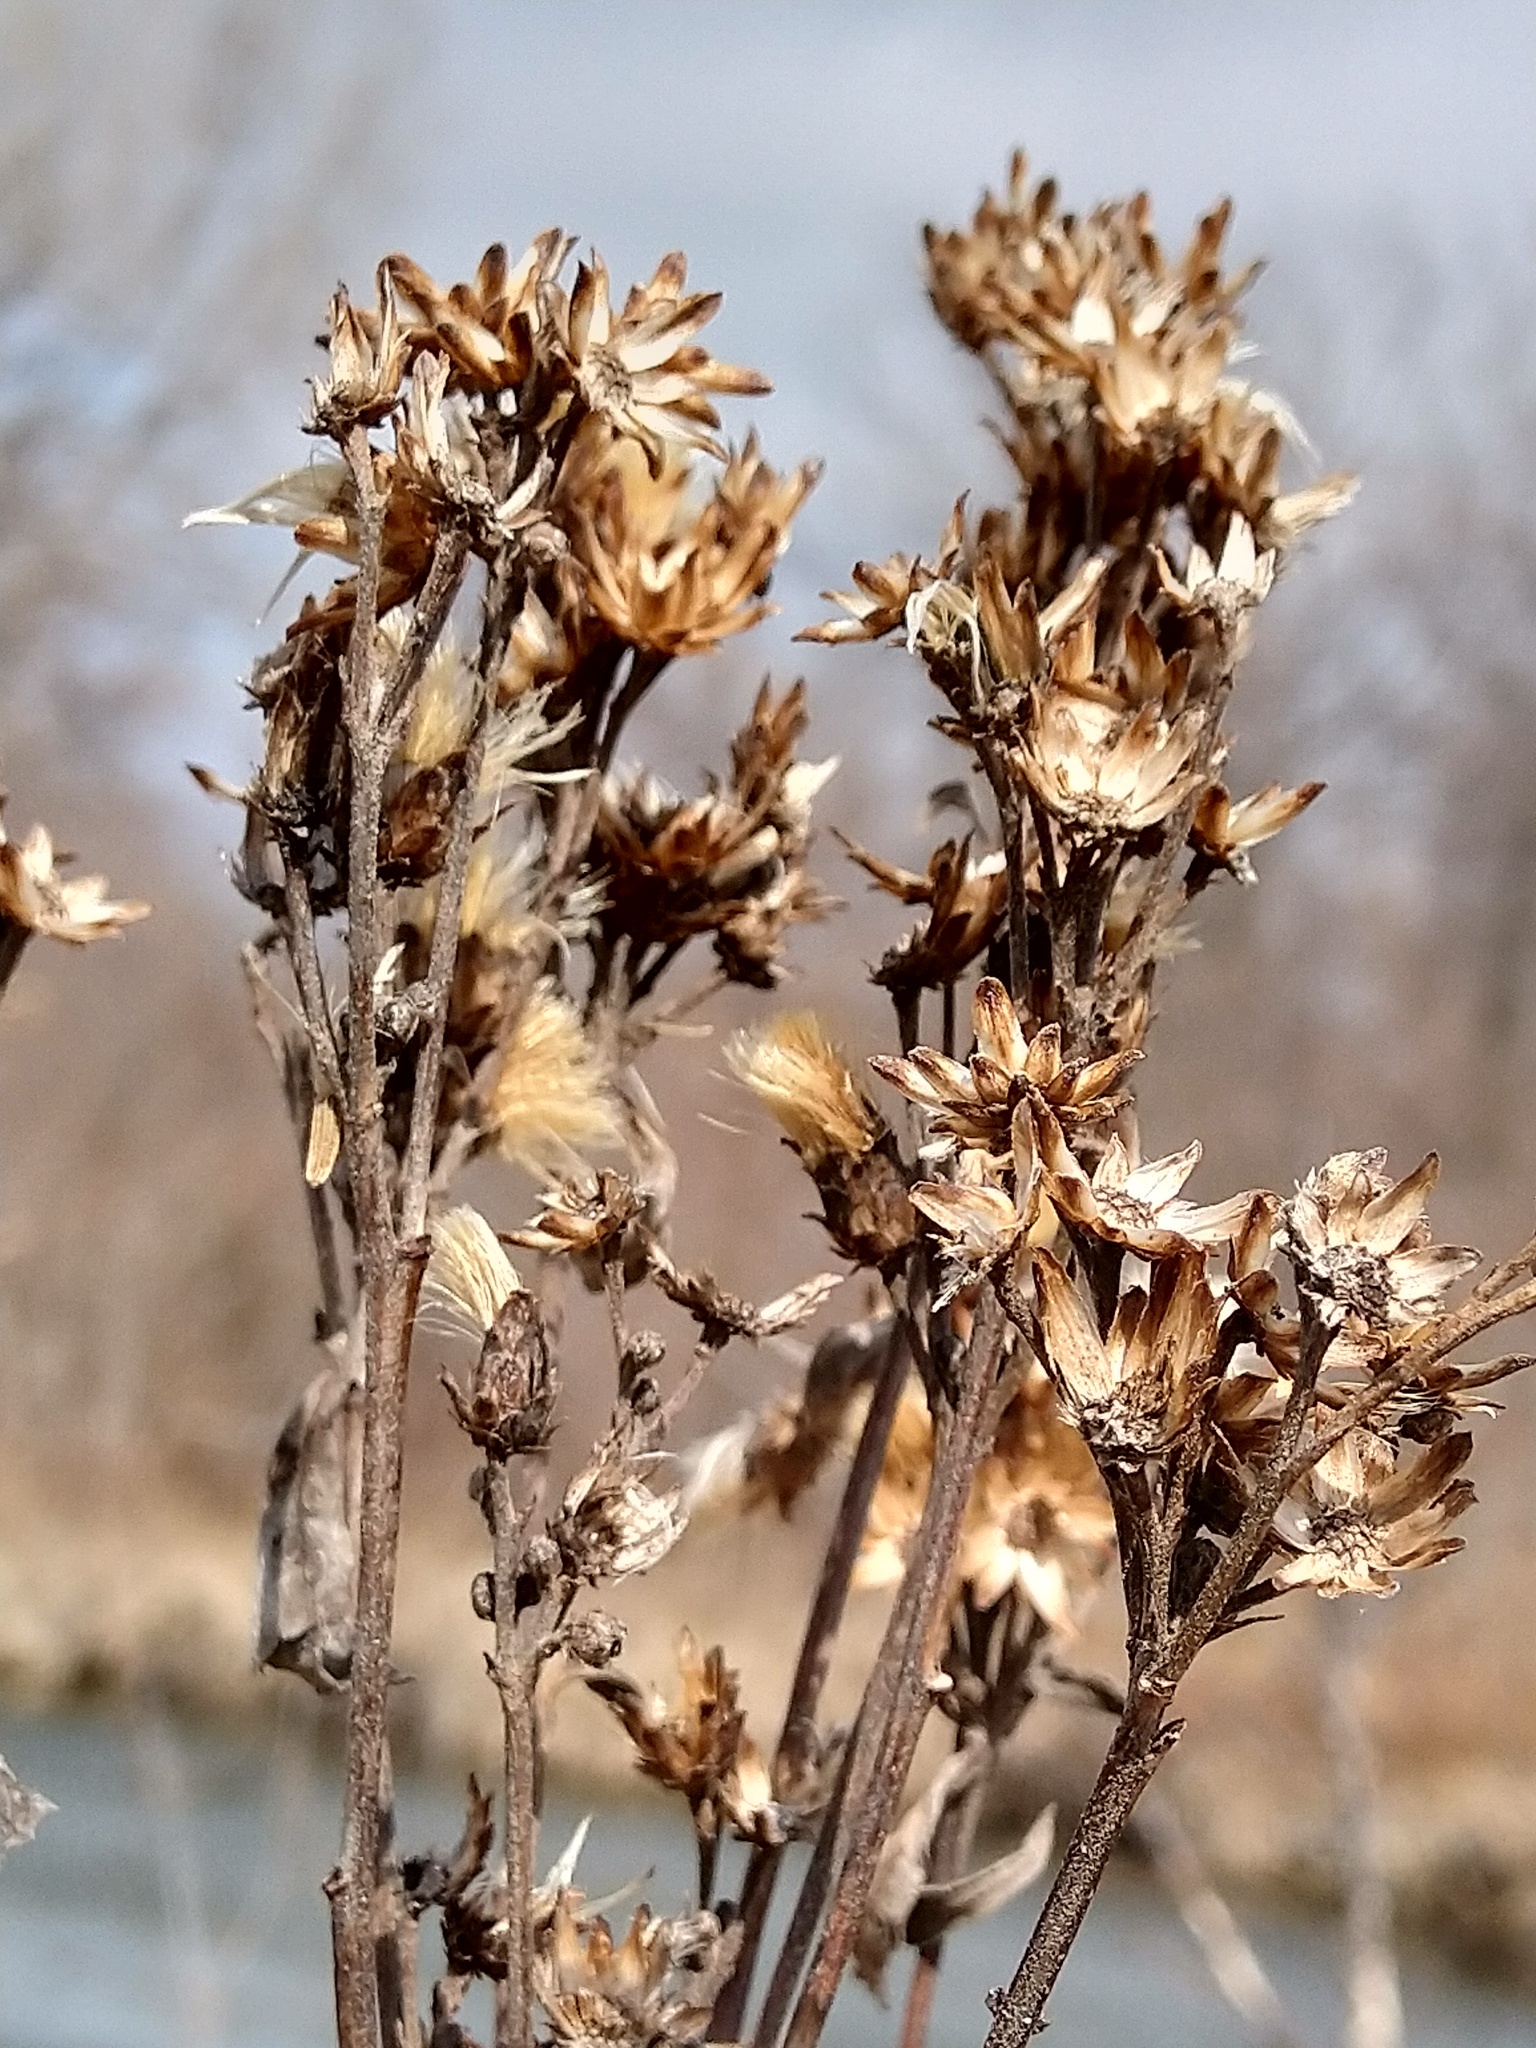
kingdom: Plantae
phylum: Tracheophyta
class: Magnoliopsida
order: Asterales
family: Asteraceae
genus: Solidago
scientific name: Solidago rigida
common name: Rigid goldenrod
